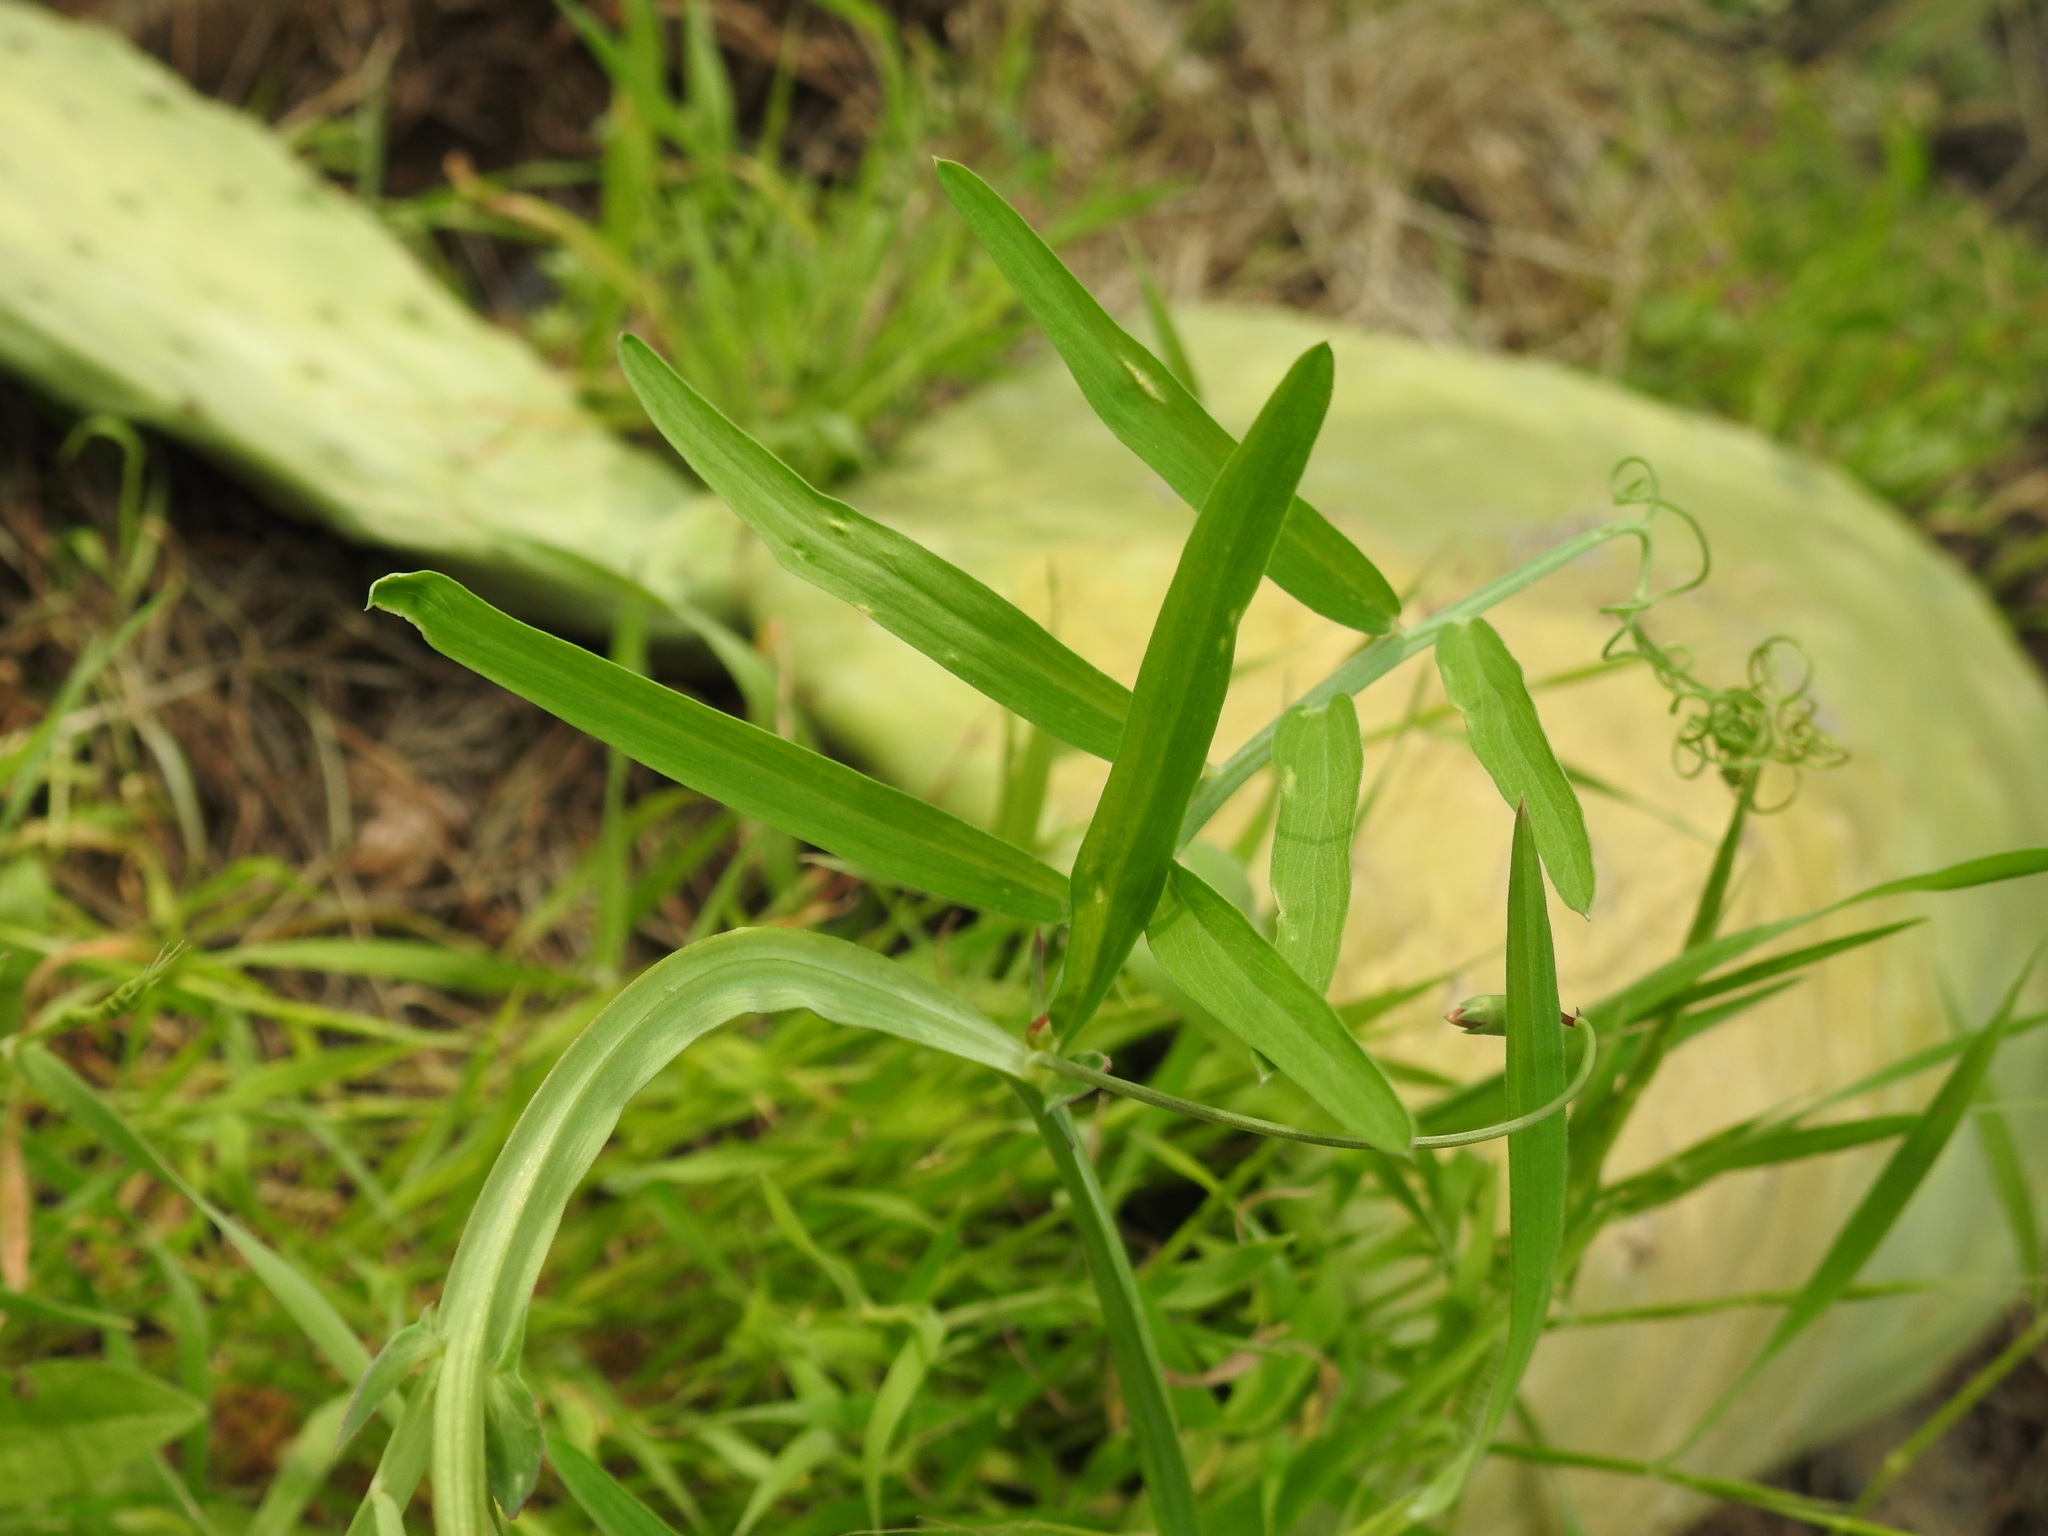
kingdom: Plantae
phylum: Tracheophyta
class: Magnoliopsida
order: Fabales
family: Fabaceae
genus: Lathyrus
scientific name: Lathyrus clymenum
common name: Spanish vetchling
